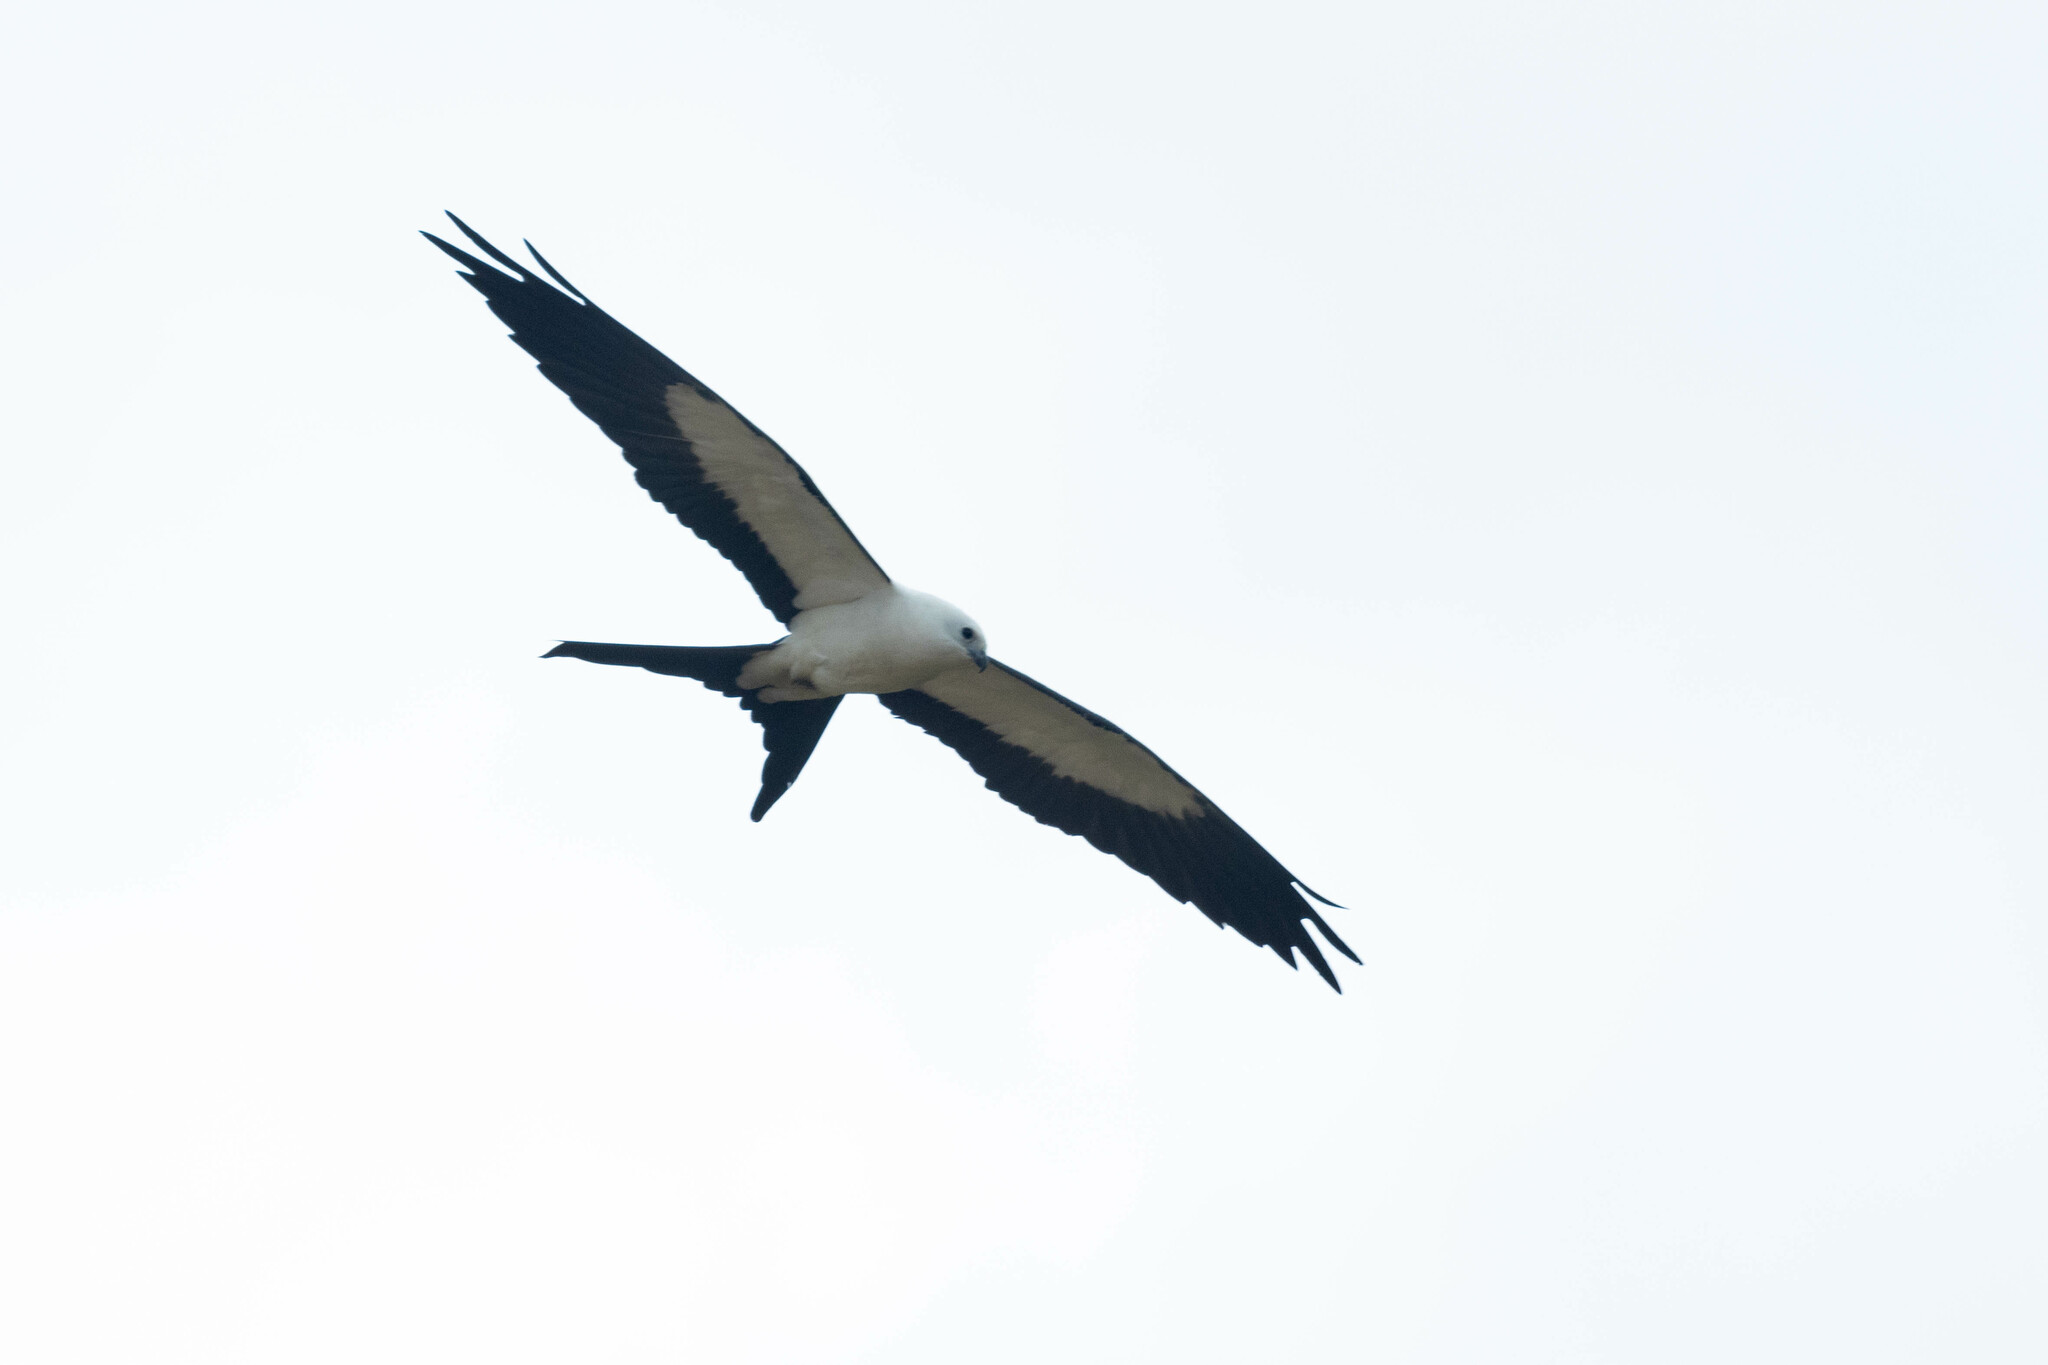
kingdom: Animalia
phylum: Chordata
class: Aves
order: Accipitriformes
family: Accipitridae
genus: Elanoides
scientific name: Elanoides forficatus
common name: Swallow-tailed kite
